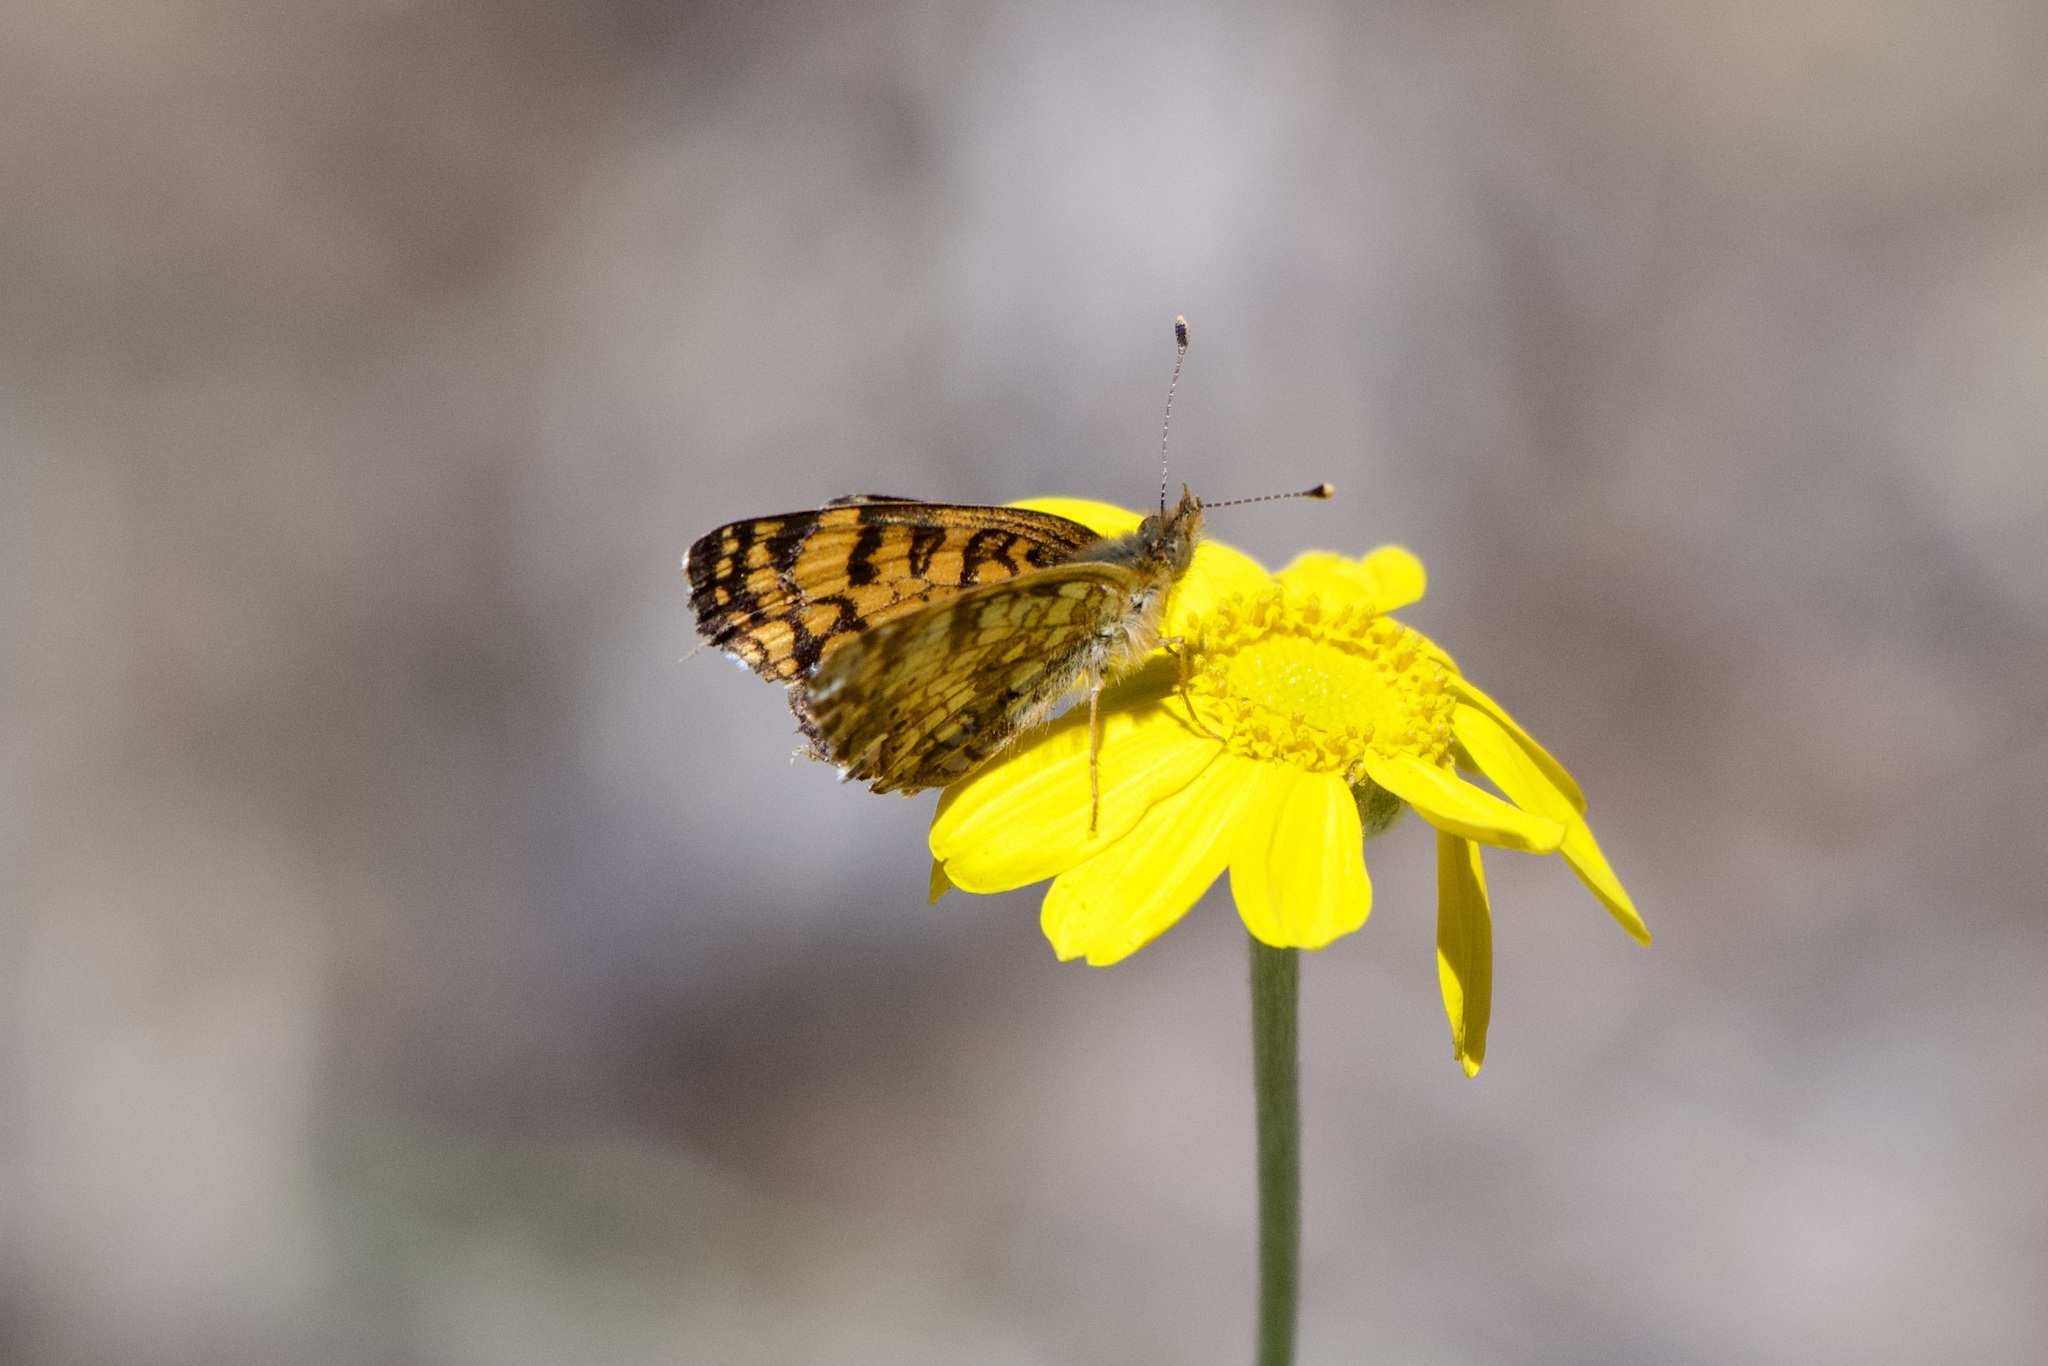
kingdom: Animalia
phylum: Arthropoda
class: Insecta
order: Lepidoptera
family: Nymphalidae
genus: Eresia
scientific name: Eresia aveyrona
